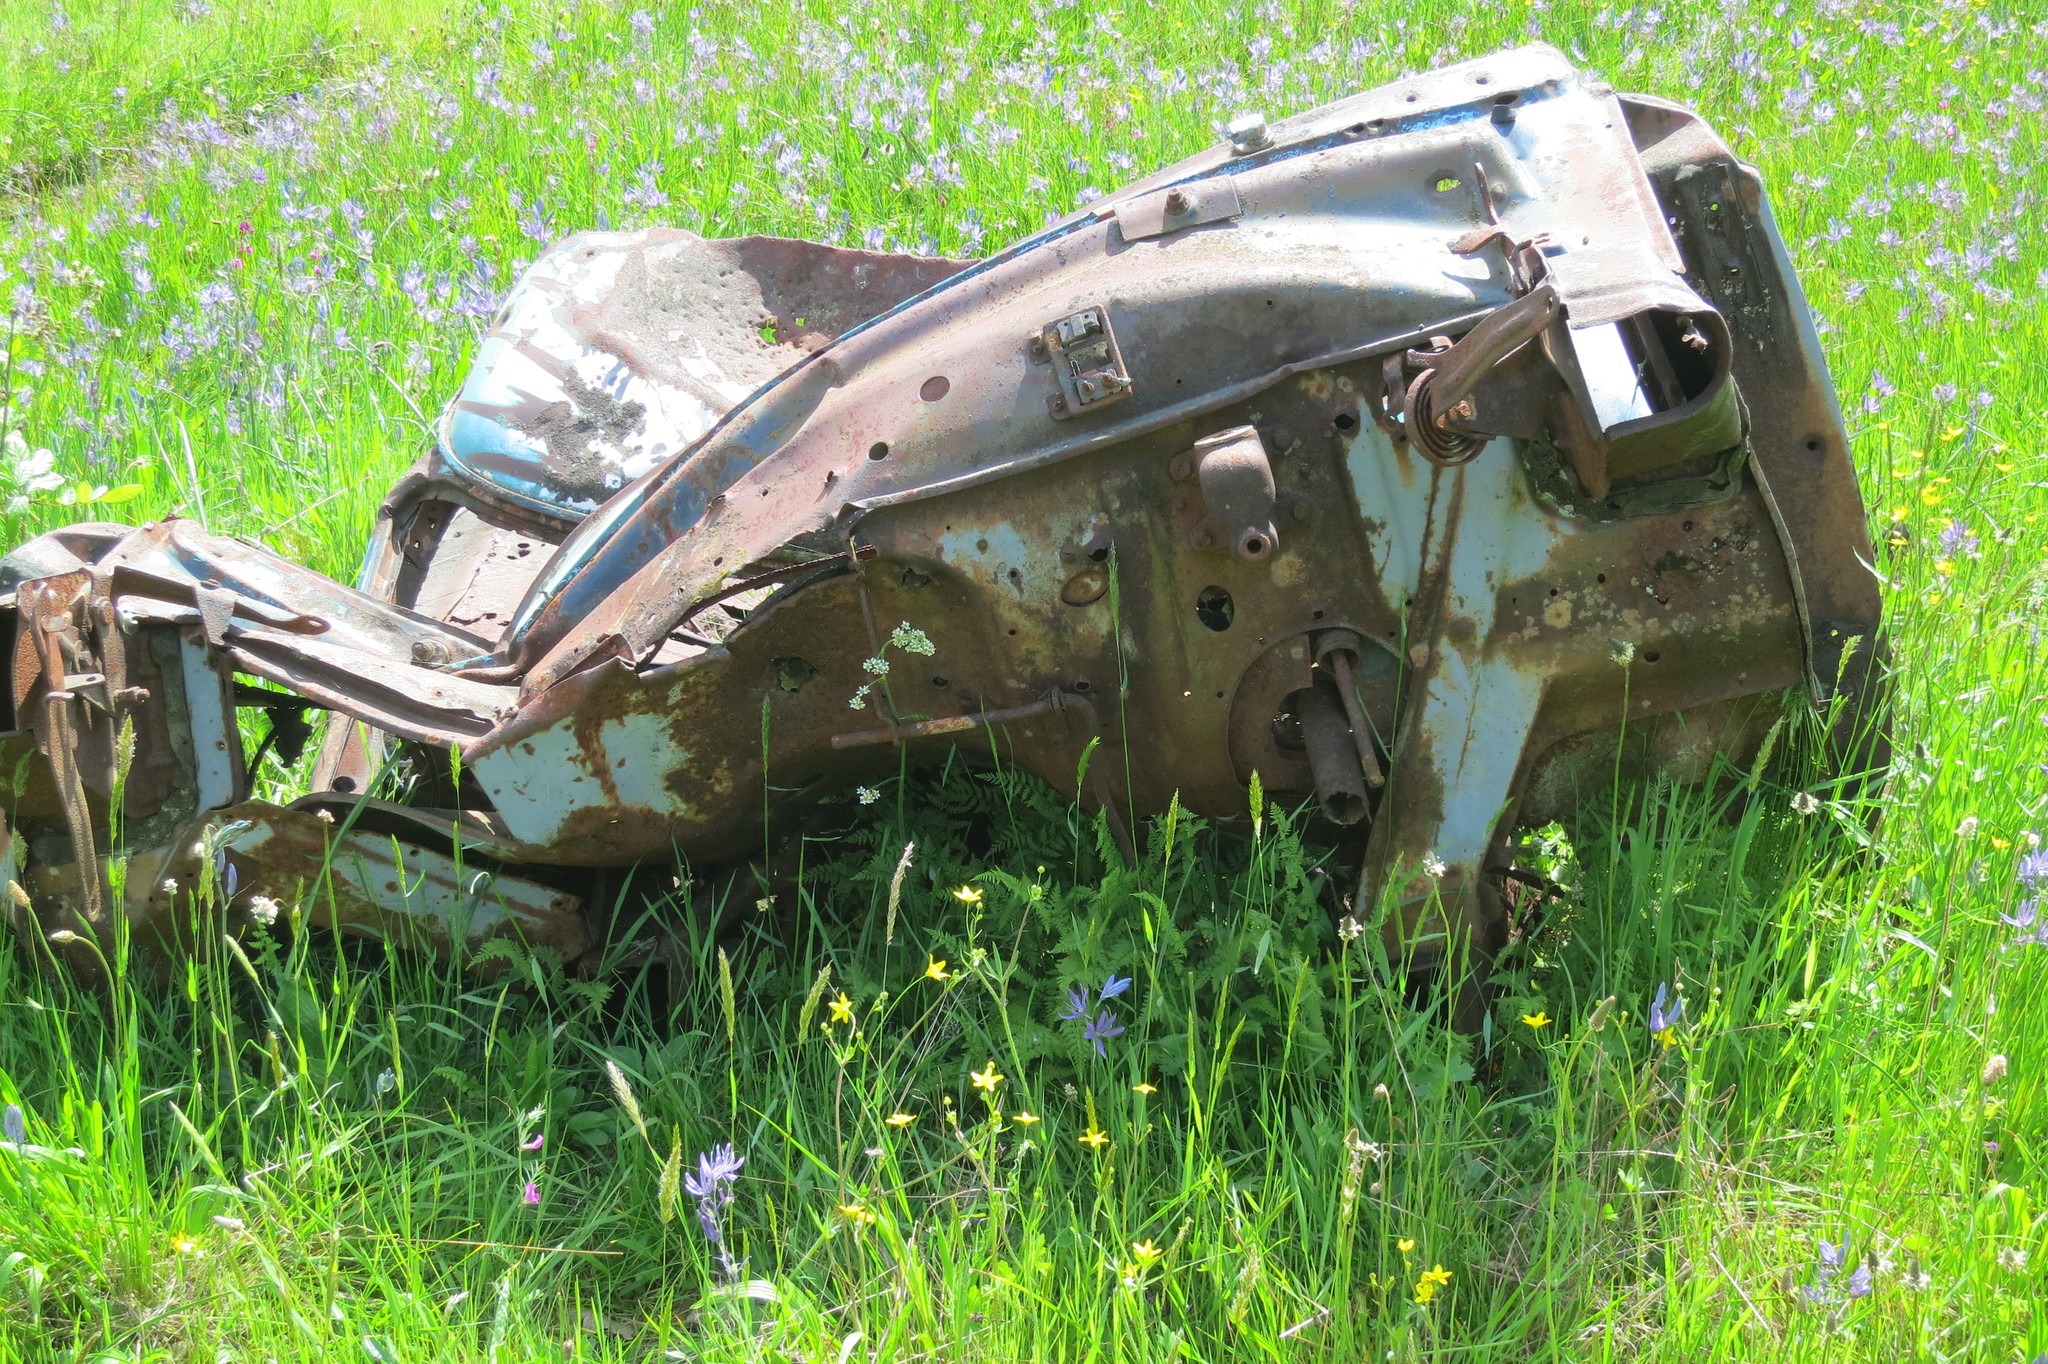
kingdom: Plantae
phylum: Tracheophyta
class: Polypodiopsida
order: Polypodiales
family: Cystopteridaceae
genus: Cystopteris
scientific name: Cystopteris fragilis
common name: Brittle bladder fern
